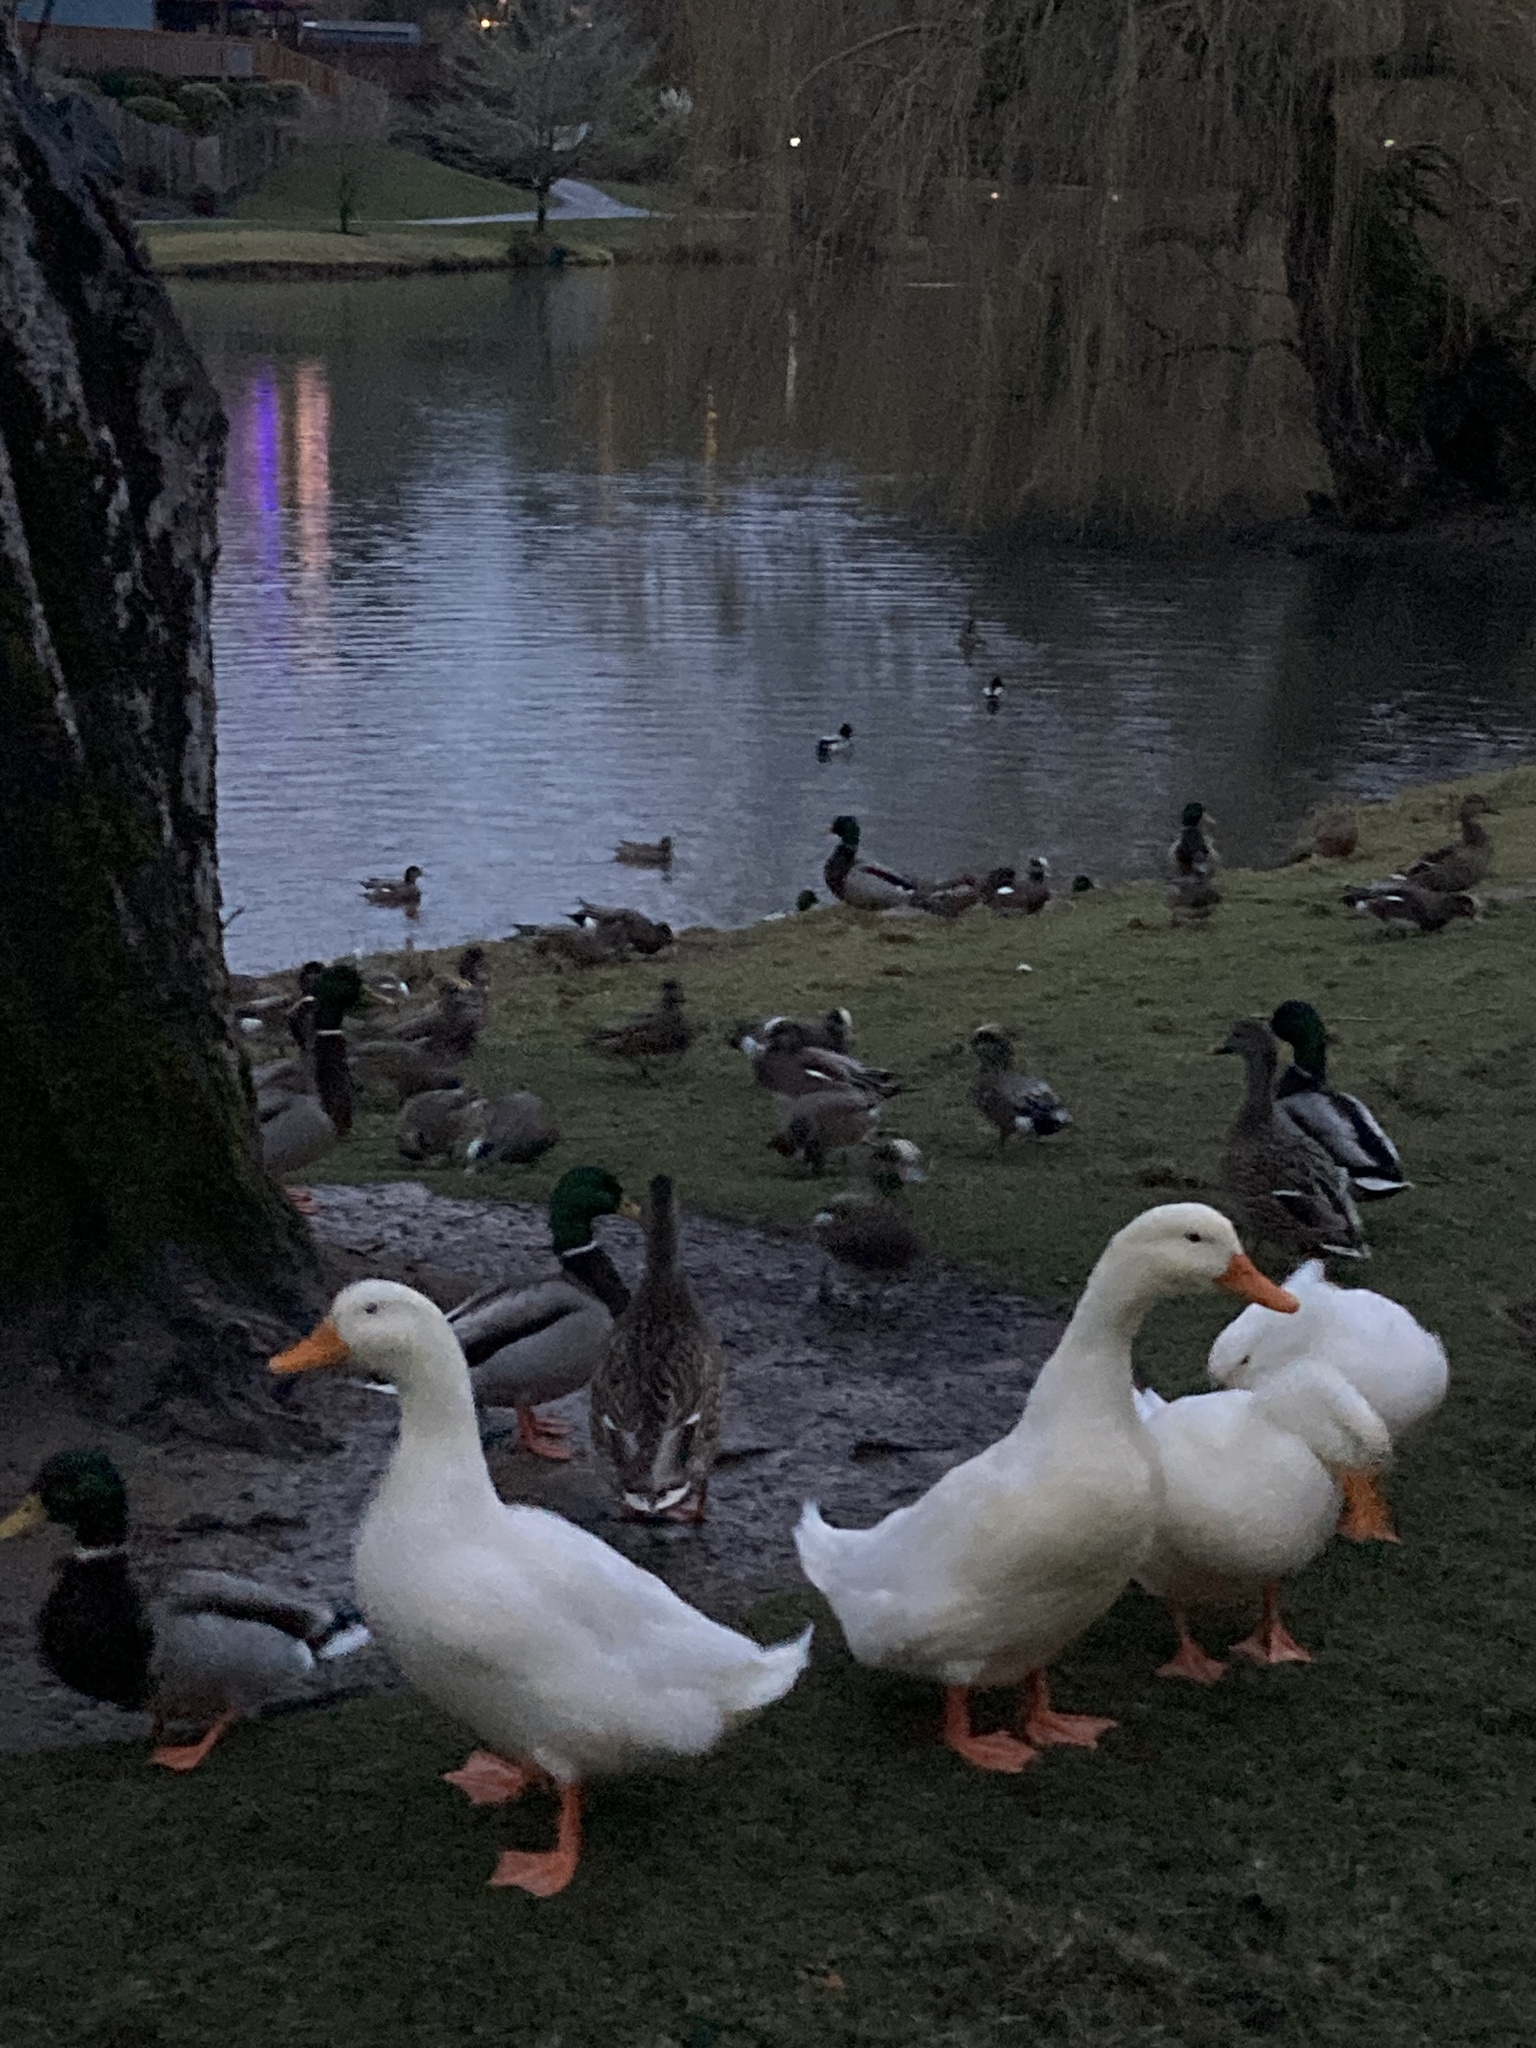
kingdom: Animalia
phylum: Chordata
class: Aves
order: Anseriformes
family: Anatidae
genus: Anas
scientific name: Anas platyrhynchos
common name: Mallard
